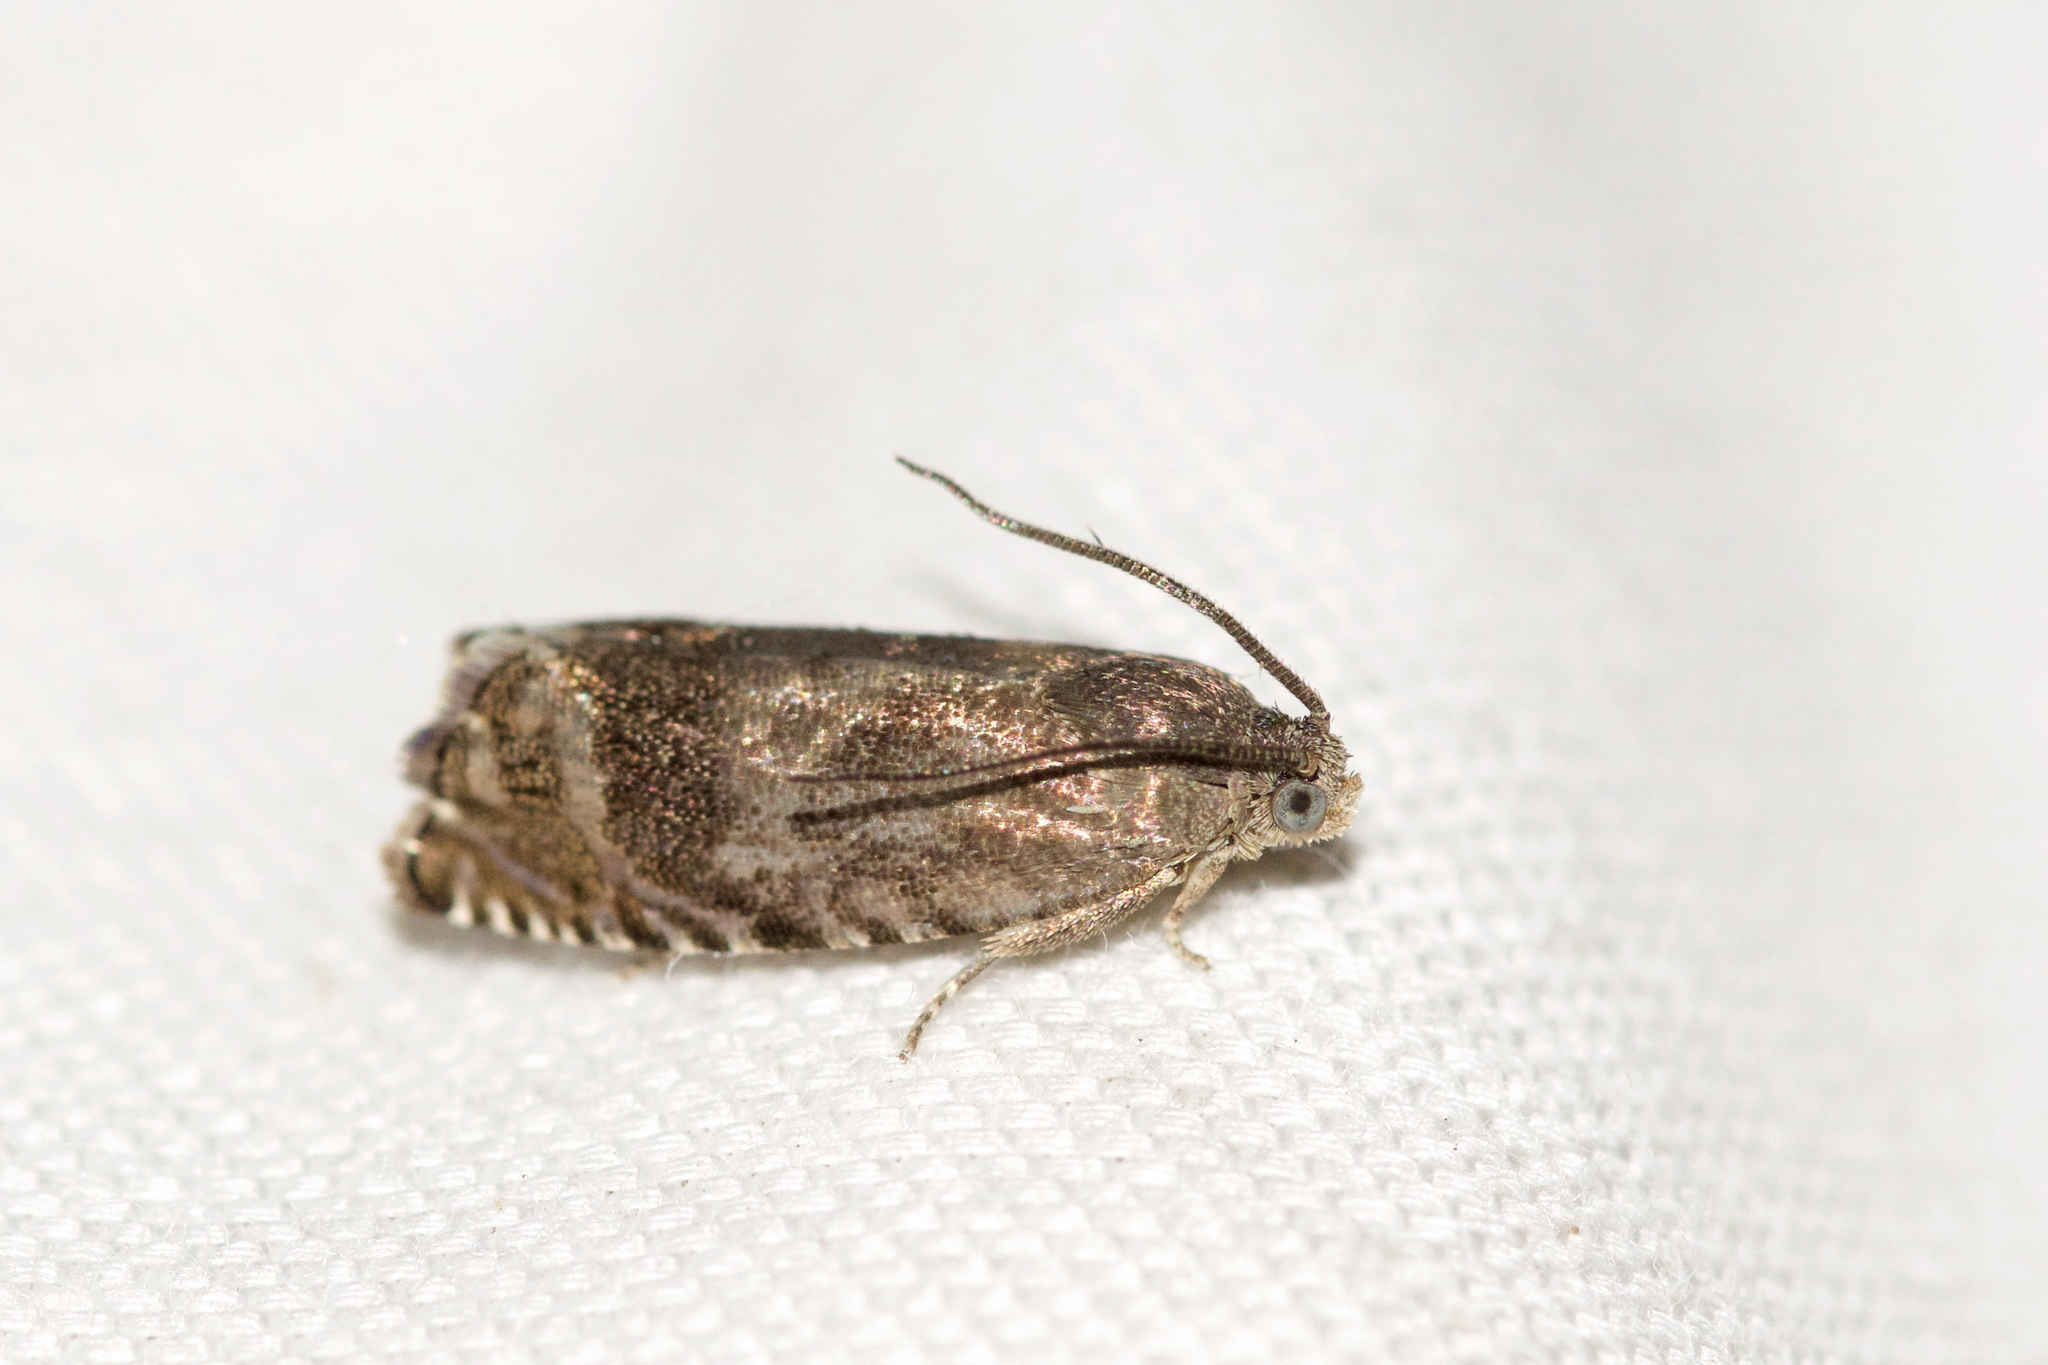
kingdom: Animalia
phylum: Arthropoda
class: Insecta
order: Lepidoptera
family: Tortricidae
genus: Cydia
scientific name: Cydia caryana
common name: Hickory shuckworm moth
